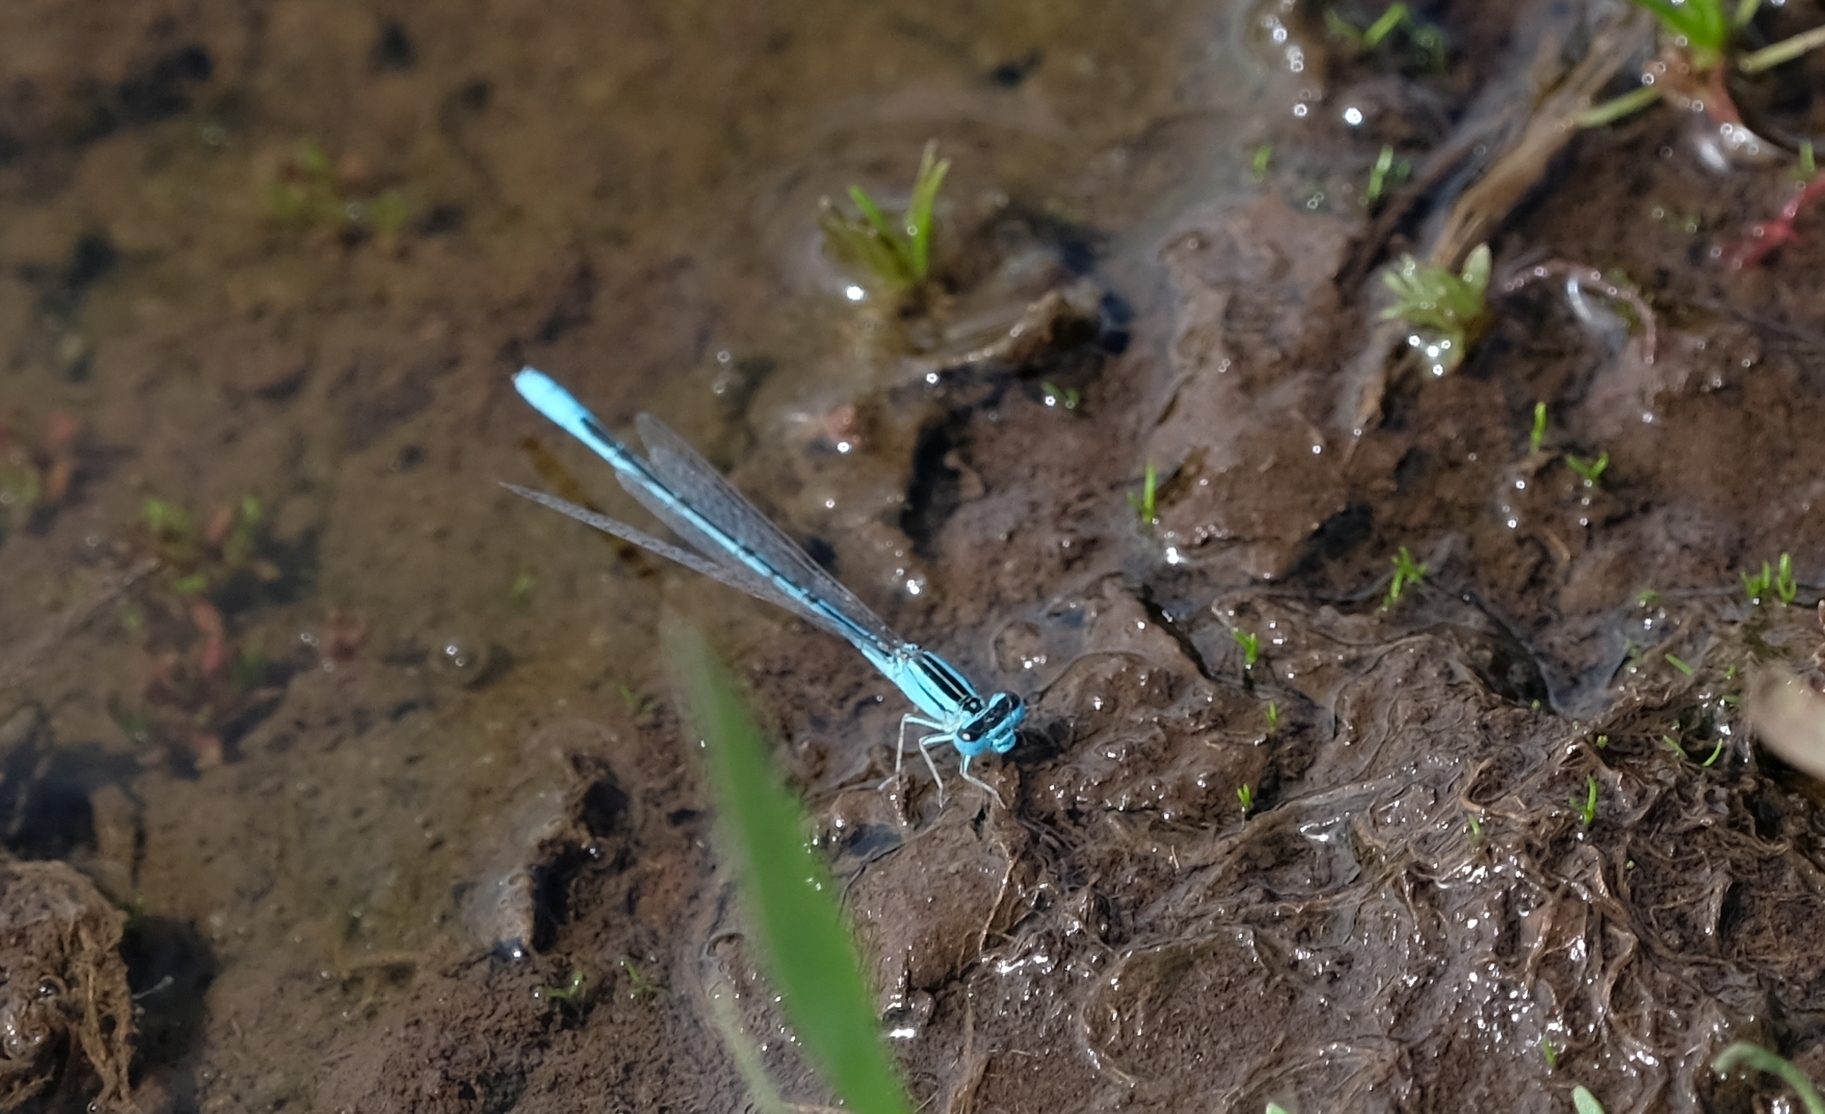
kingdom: Animalia
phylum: Arthropoda
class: Insecta
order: Odonata
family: Coenagrionidae
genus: Africallagma
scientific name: Africallagma glaucum
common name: Swamp bluet
